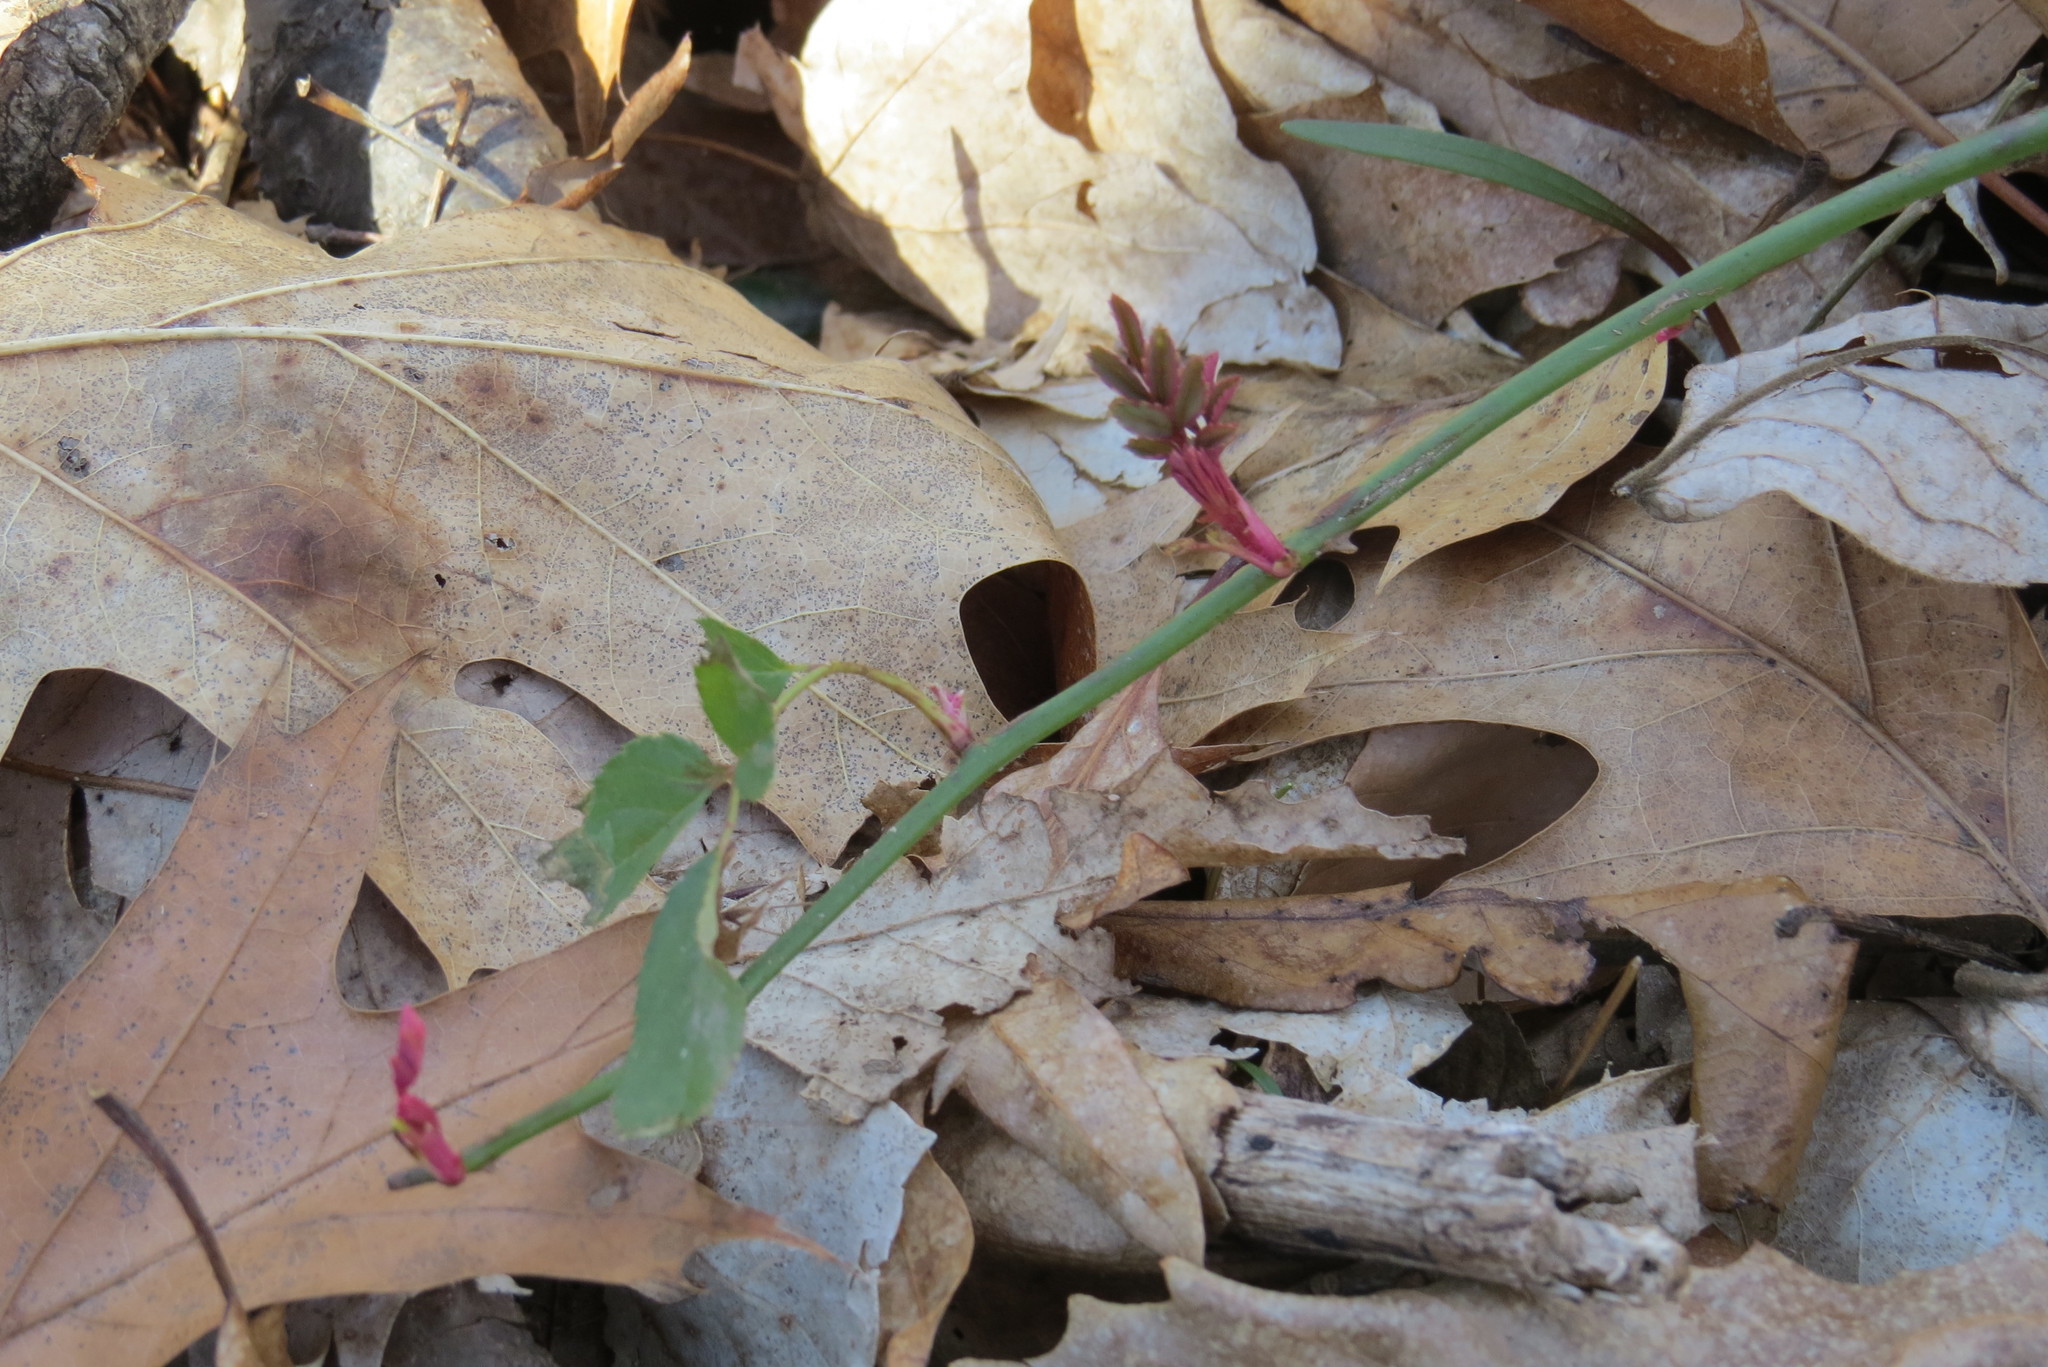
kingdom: Plantae
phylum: Tracheophyta
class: Magnoliopsida
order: Rosales
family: Rosaceae
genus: Rosa
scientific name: Rosa multiflora
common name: Multiflora rose
